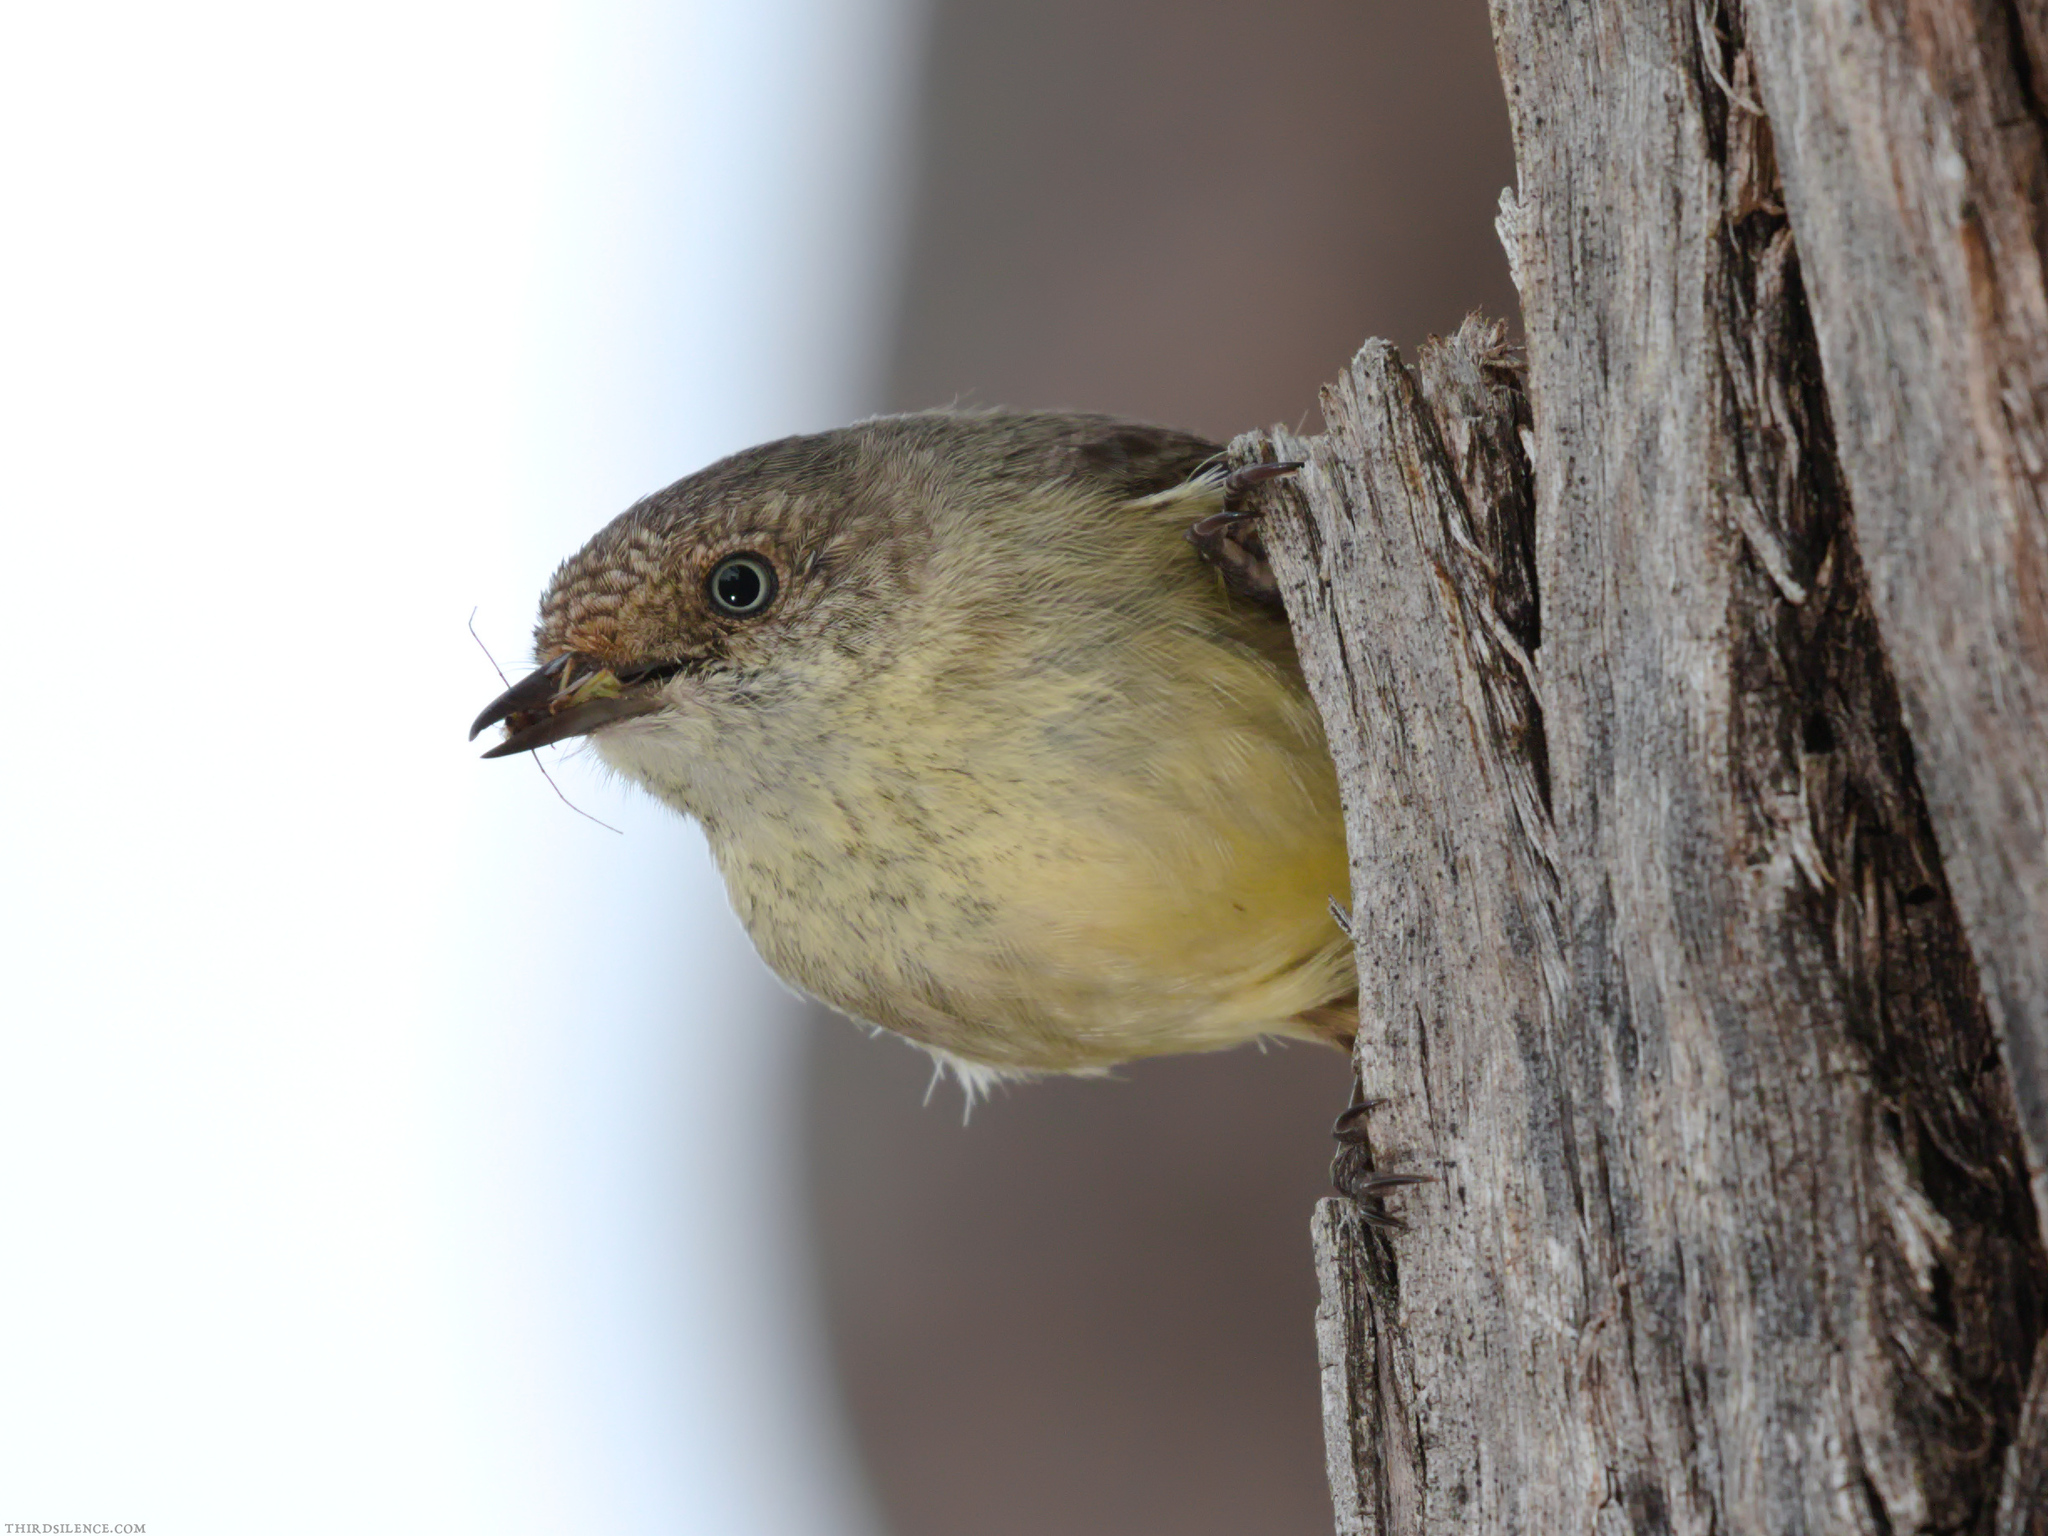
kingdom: Animalia
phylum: Chordata
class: Aves
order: Passeriformes
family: Acanthizidae
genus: Acanthiza
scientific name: Acanthiza reguloides
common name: Buff-rumped thornbill
